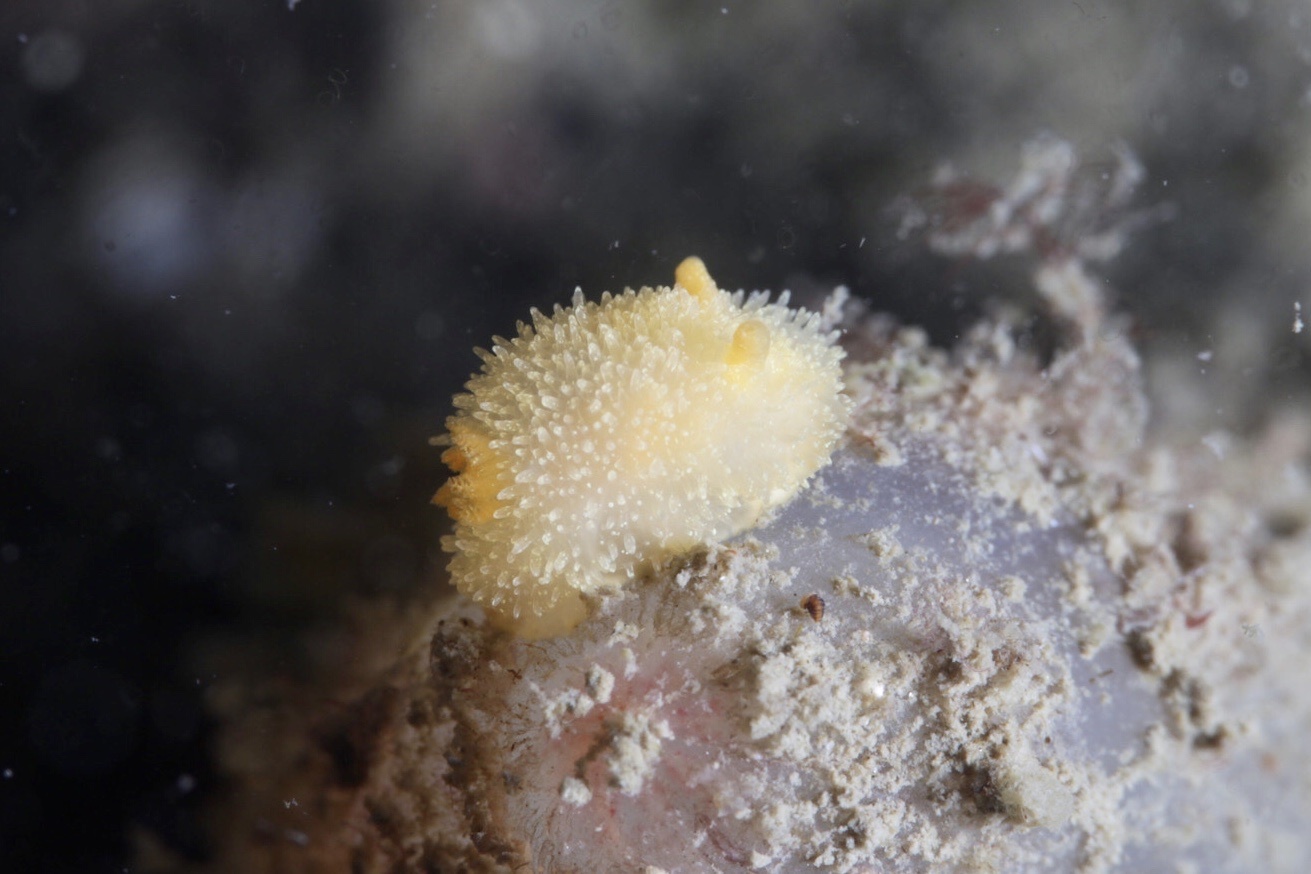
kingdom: Animalia
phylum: Mollusca
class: Gastropoda
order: Nudibranchia
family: Onchidorididae
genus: Acanthodoris
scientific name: Acanthodoris pilosa
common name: Hairy spiny doris
